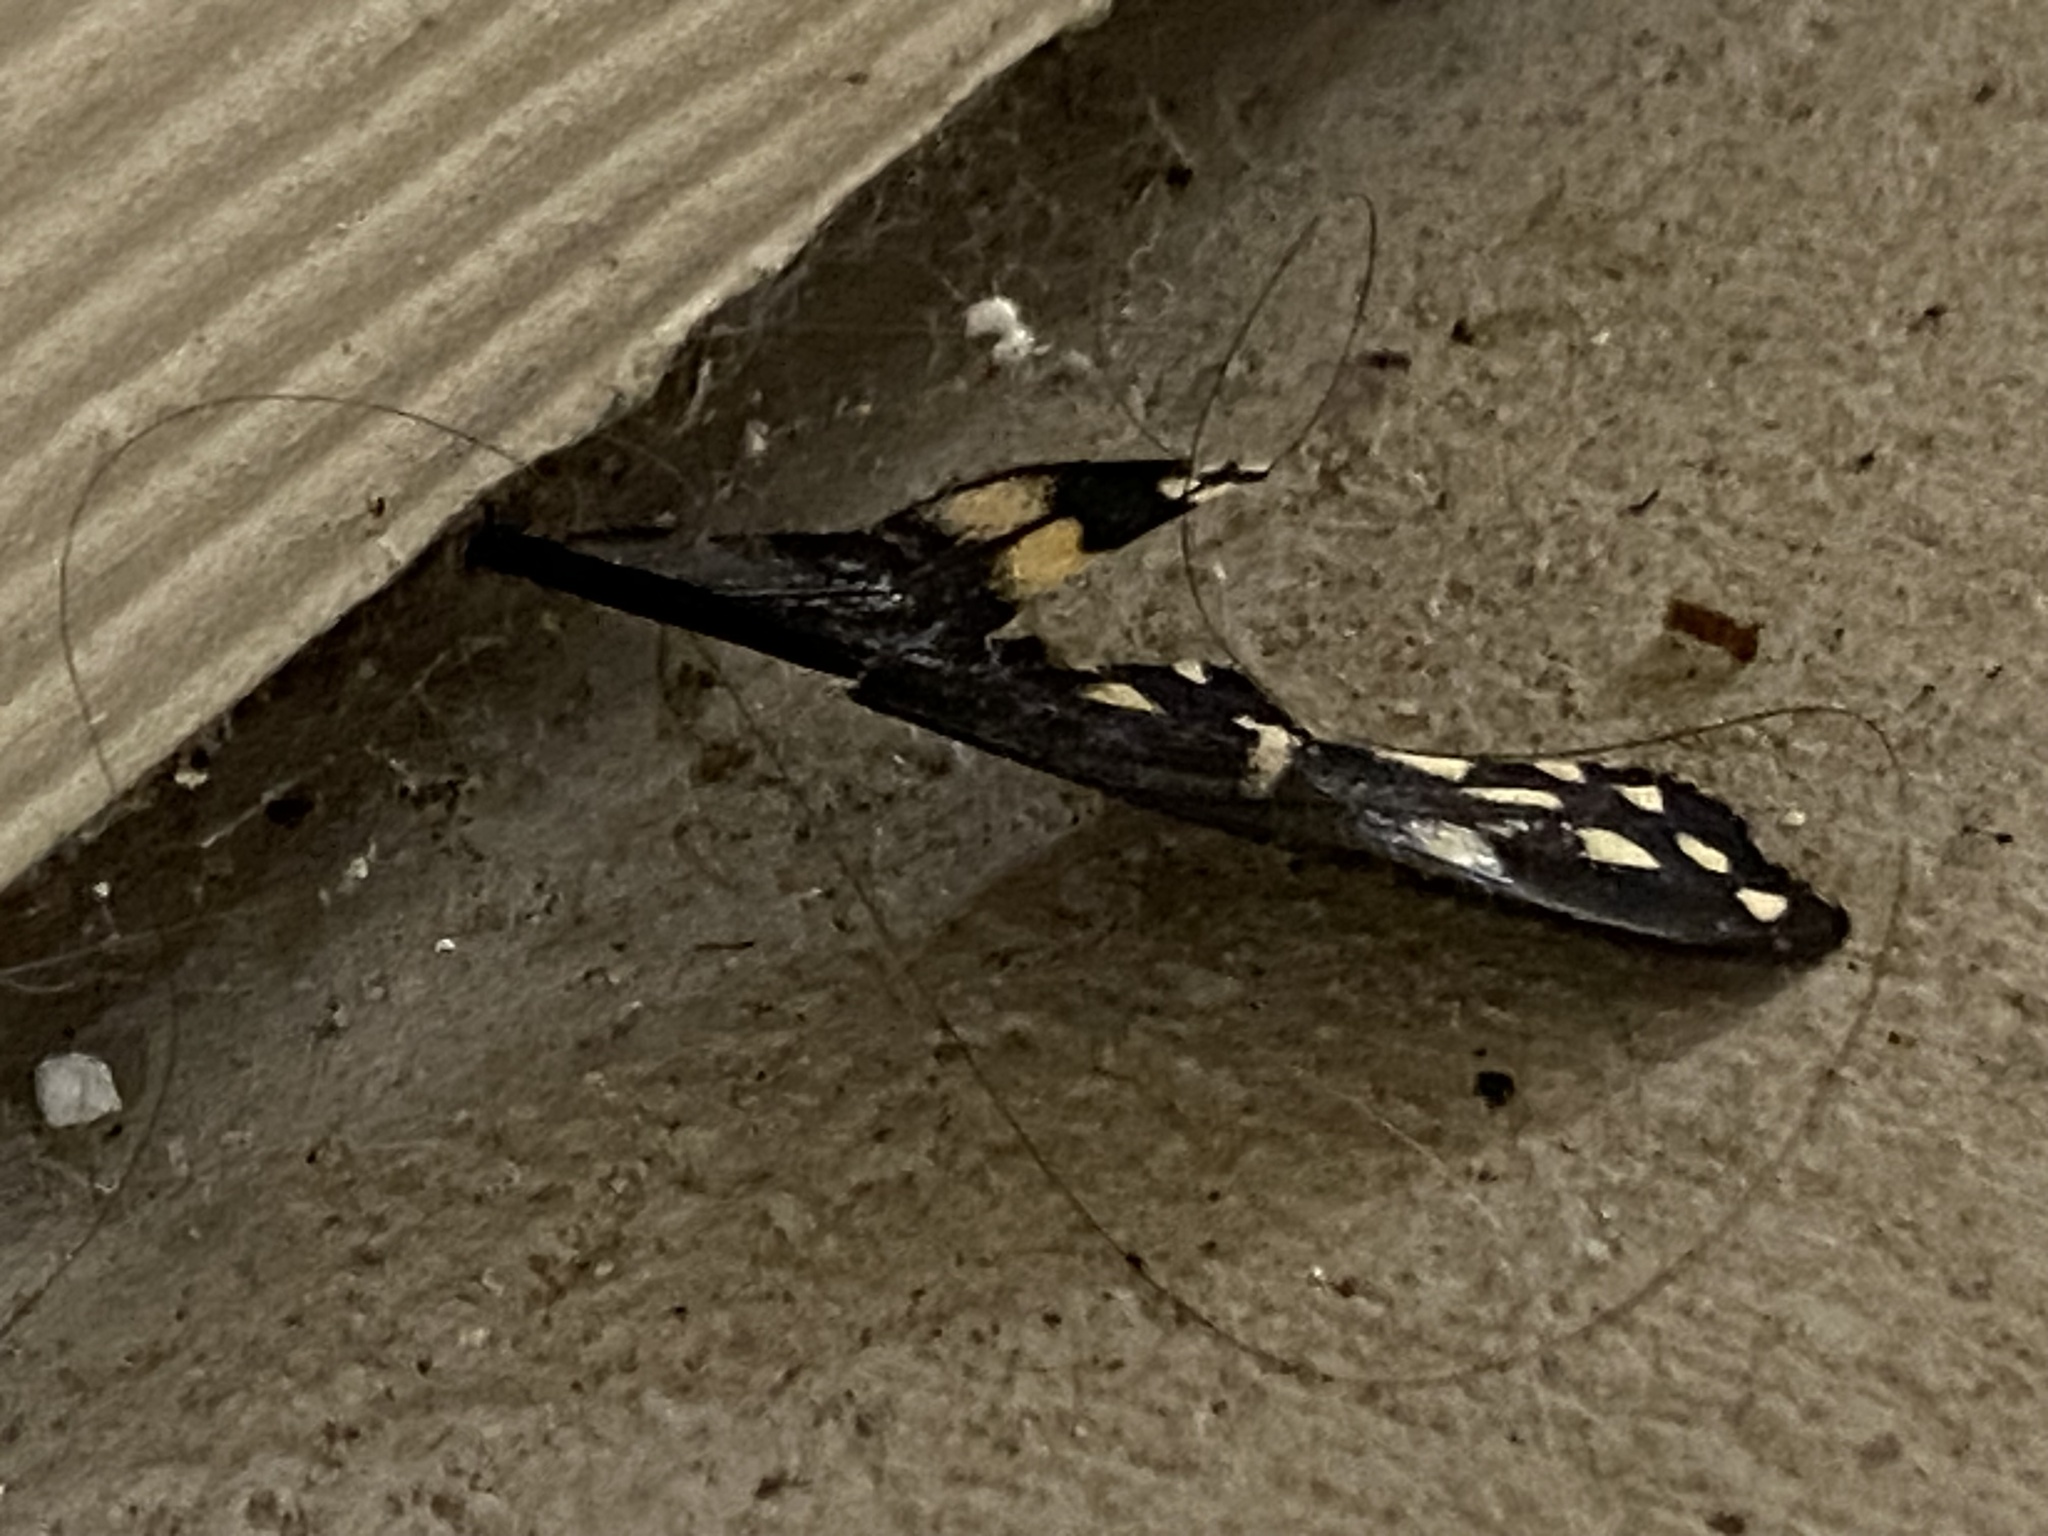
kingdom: Animalia
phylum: Arthropoda
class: Insecta
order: Lepidoptera
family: Papilionidae
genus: Papilio
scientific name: Papilio polyxenes
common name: Black swallowtail
